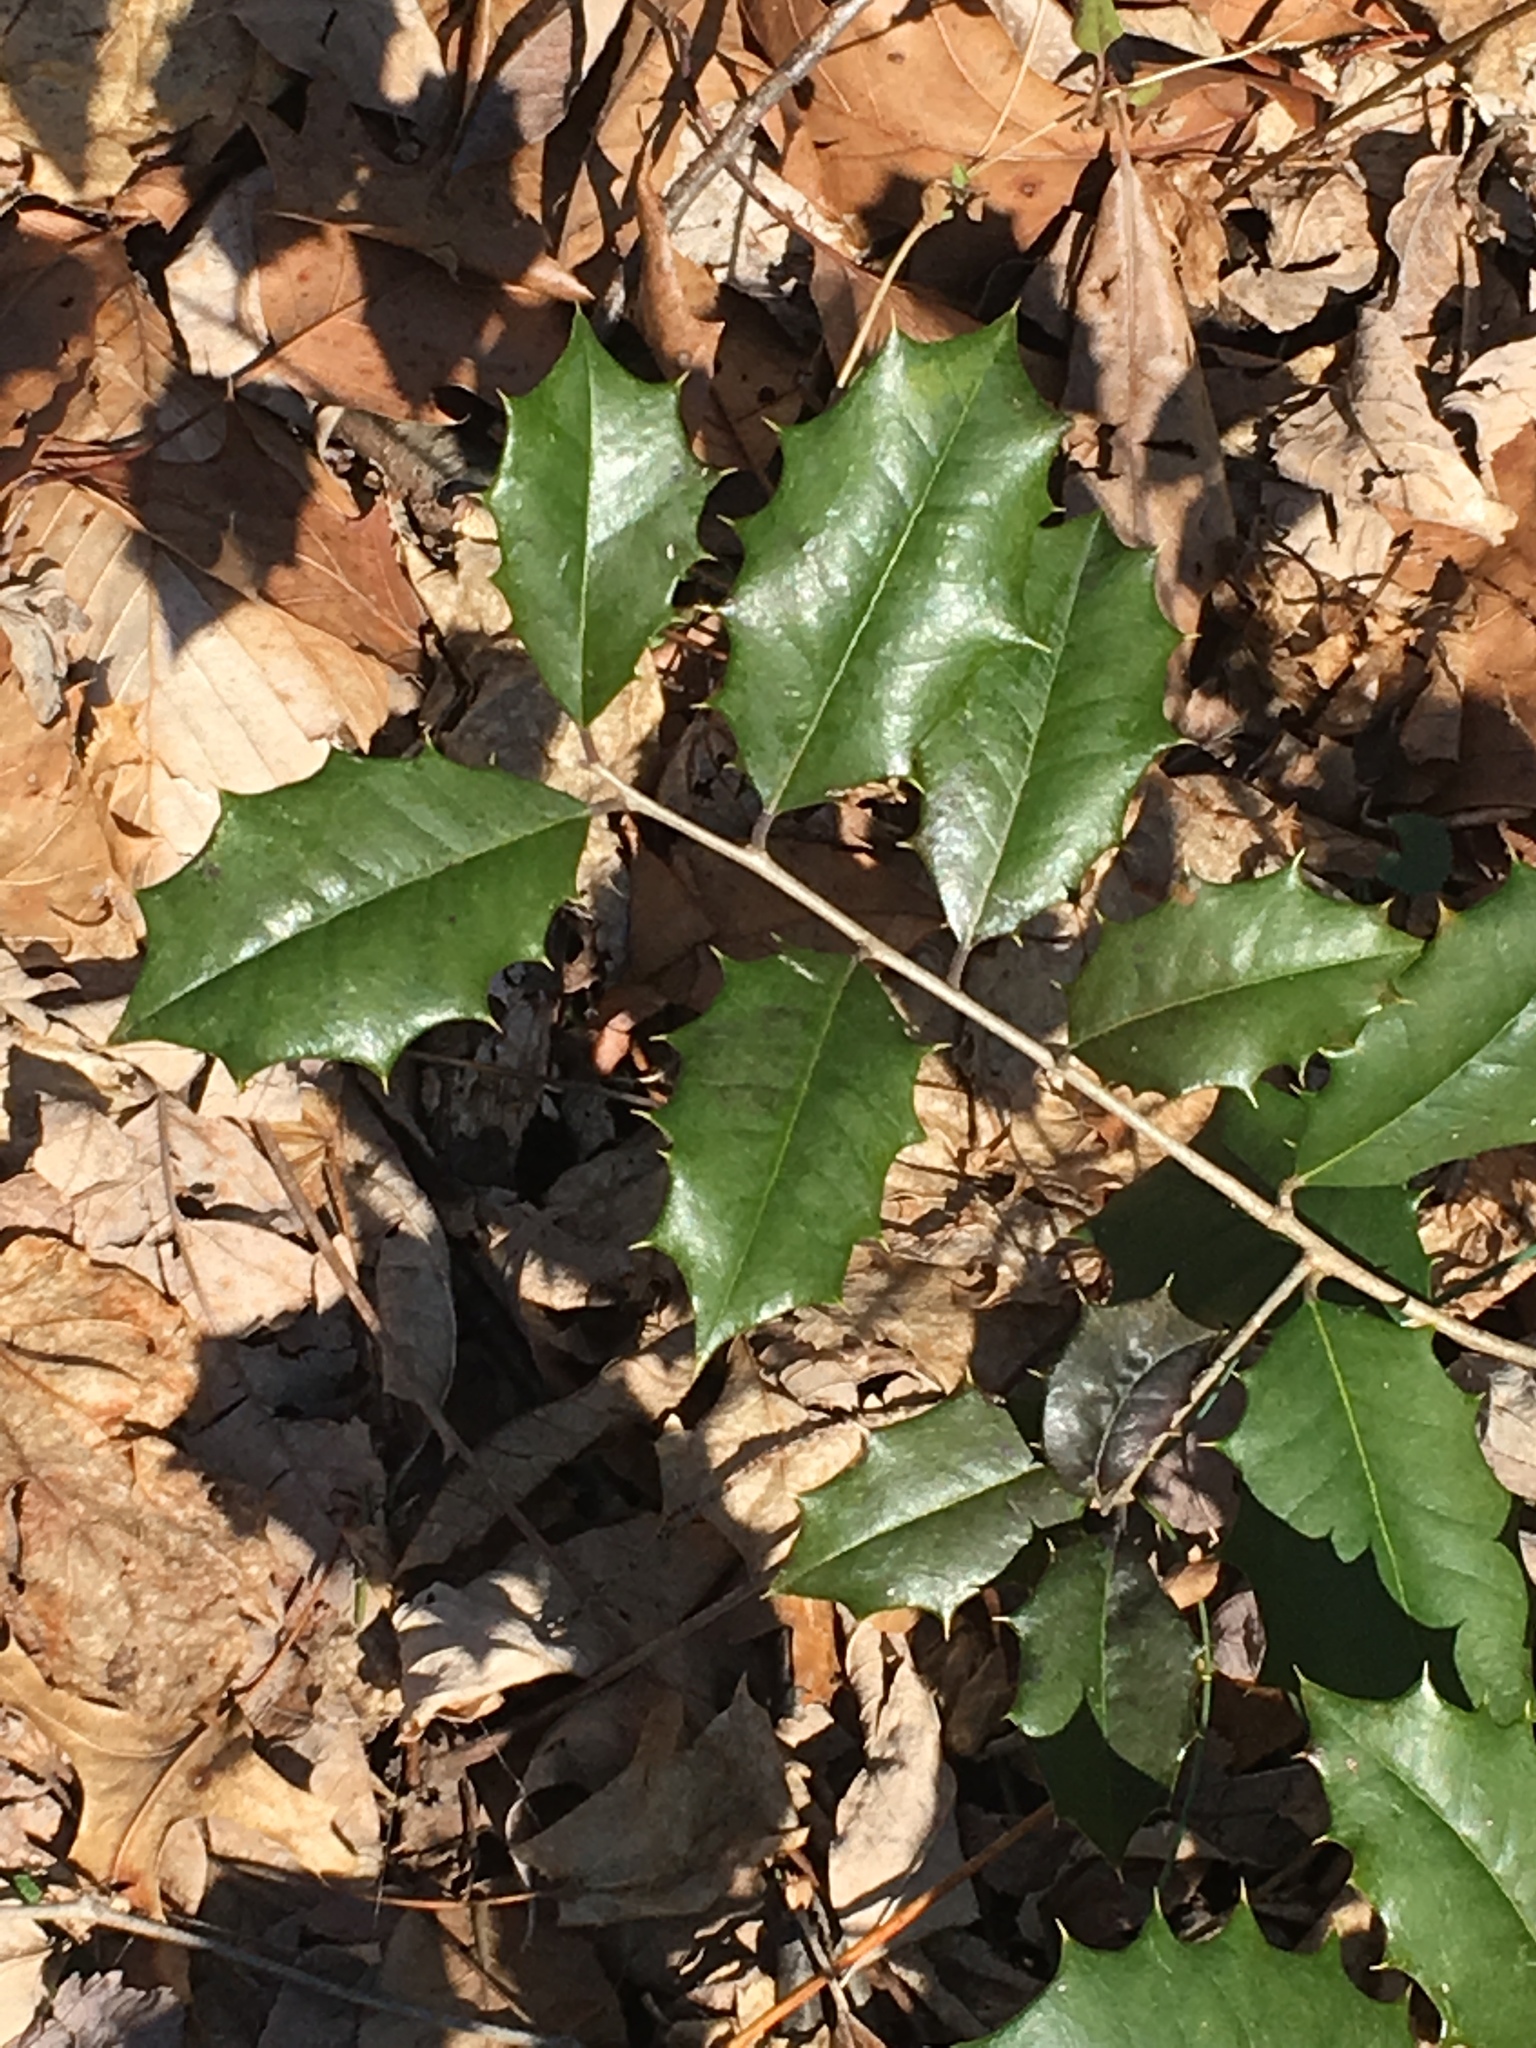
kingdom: Plantae
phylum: Tracheophyta
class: Magnoliopsida
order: Aquifoliales
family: Aquifoliaceae
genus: Ilex
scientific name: Ilex opaca
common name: American holly
